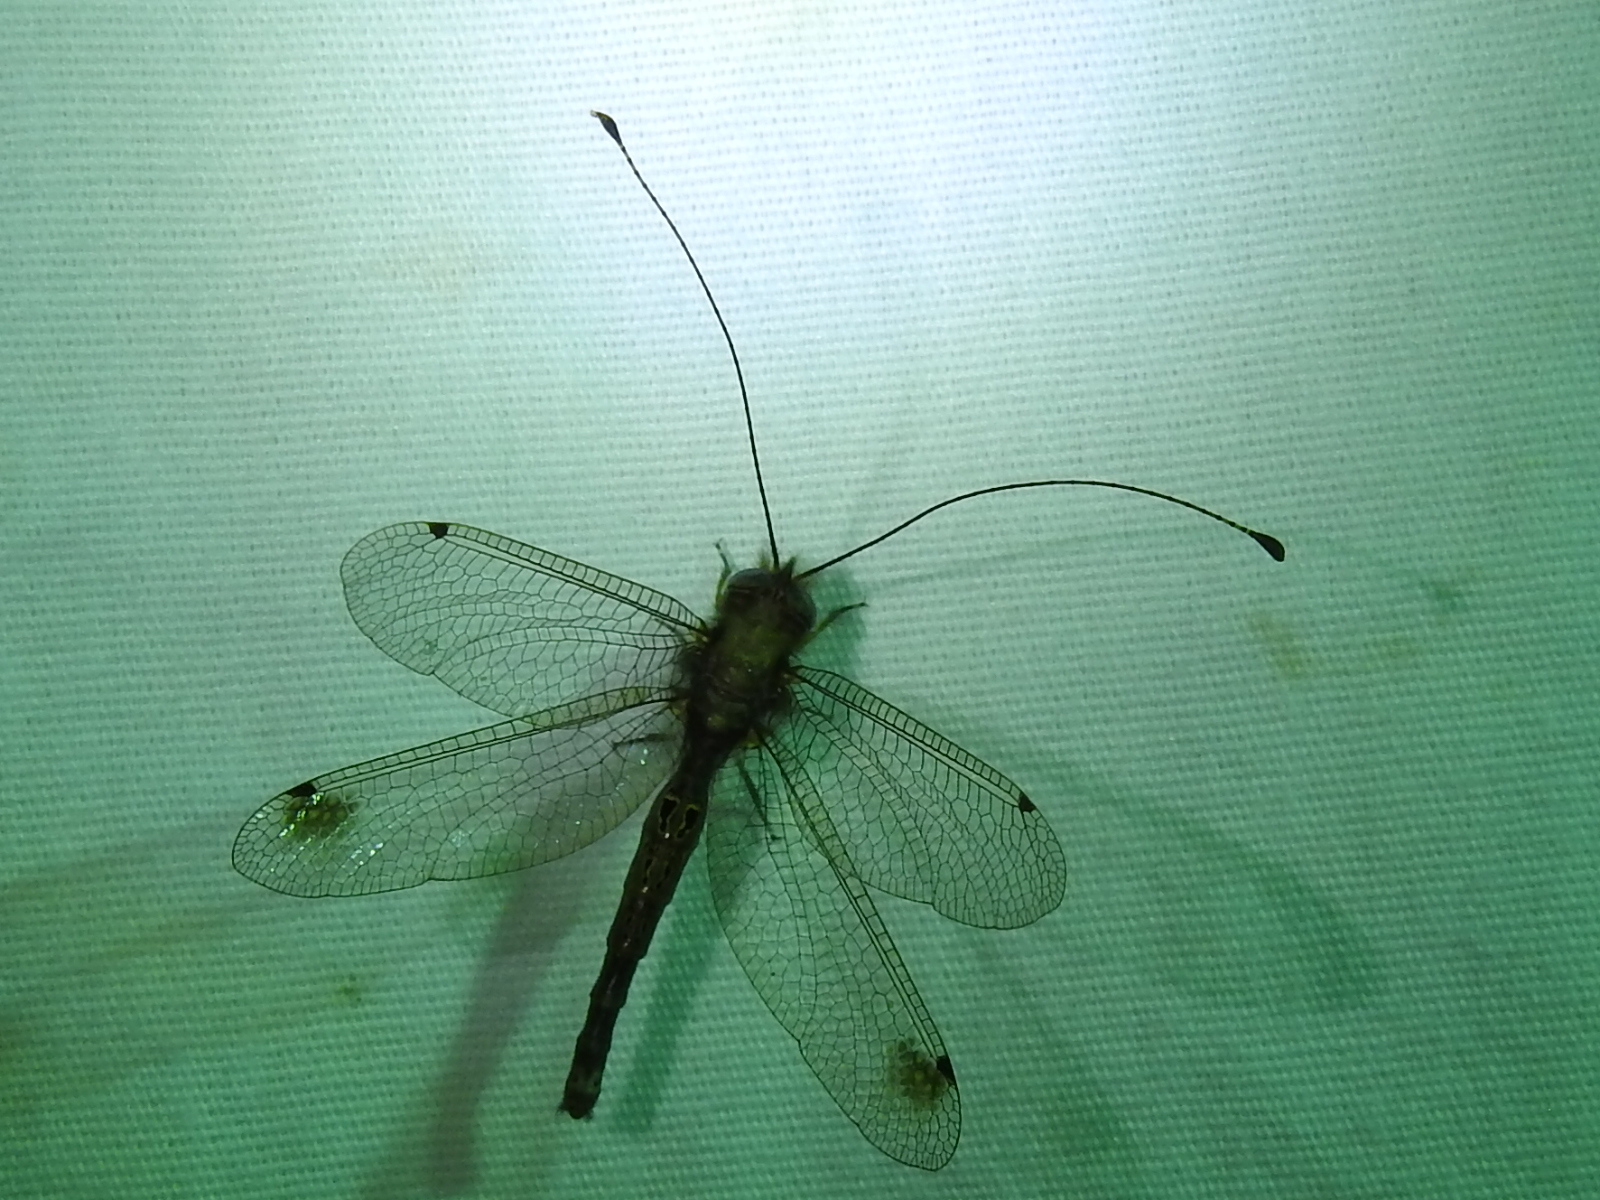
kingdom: Animalia
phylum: Arthropoda
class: Insecta
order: Neuroptera
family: Ascalaphidae
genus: Ululodes
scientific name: Ululodes macleayanus
